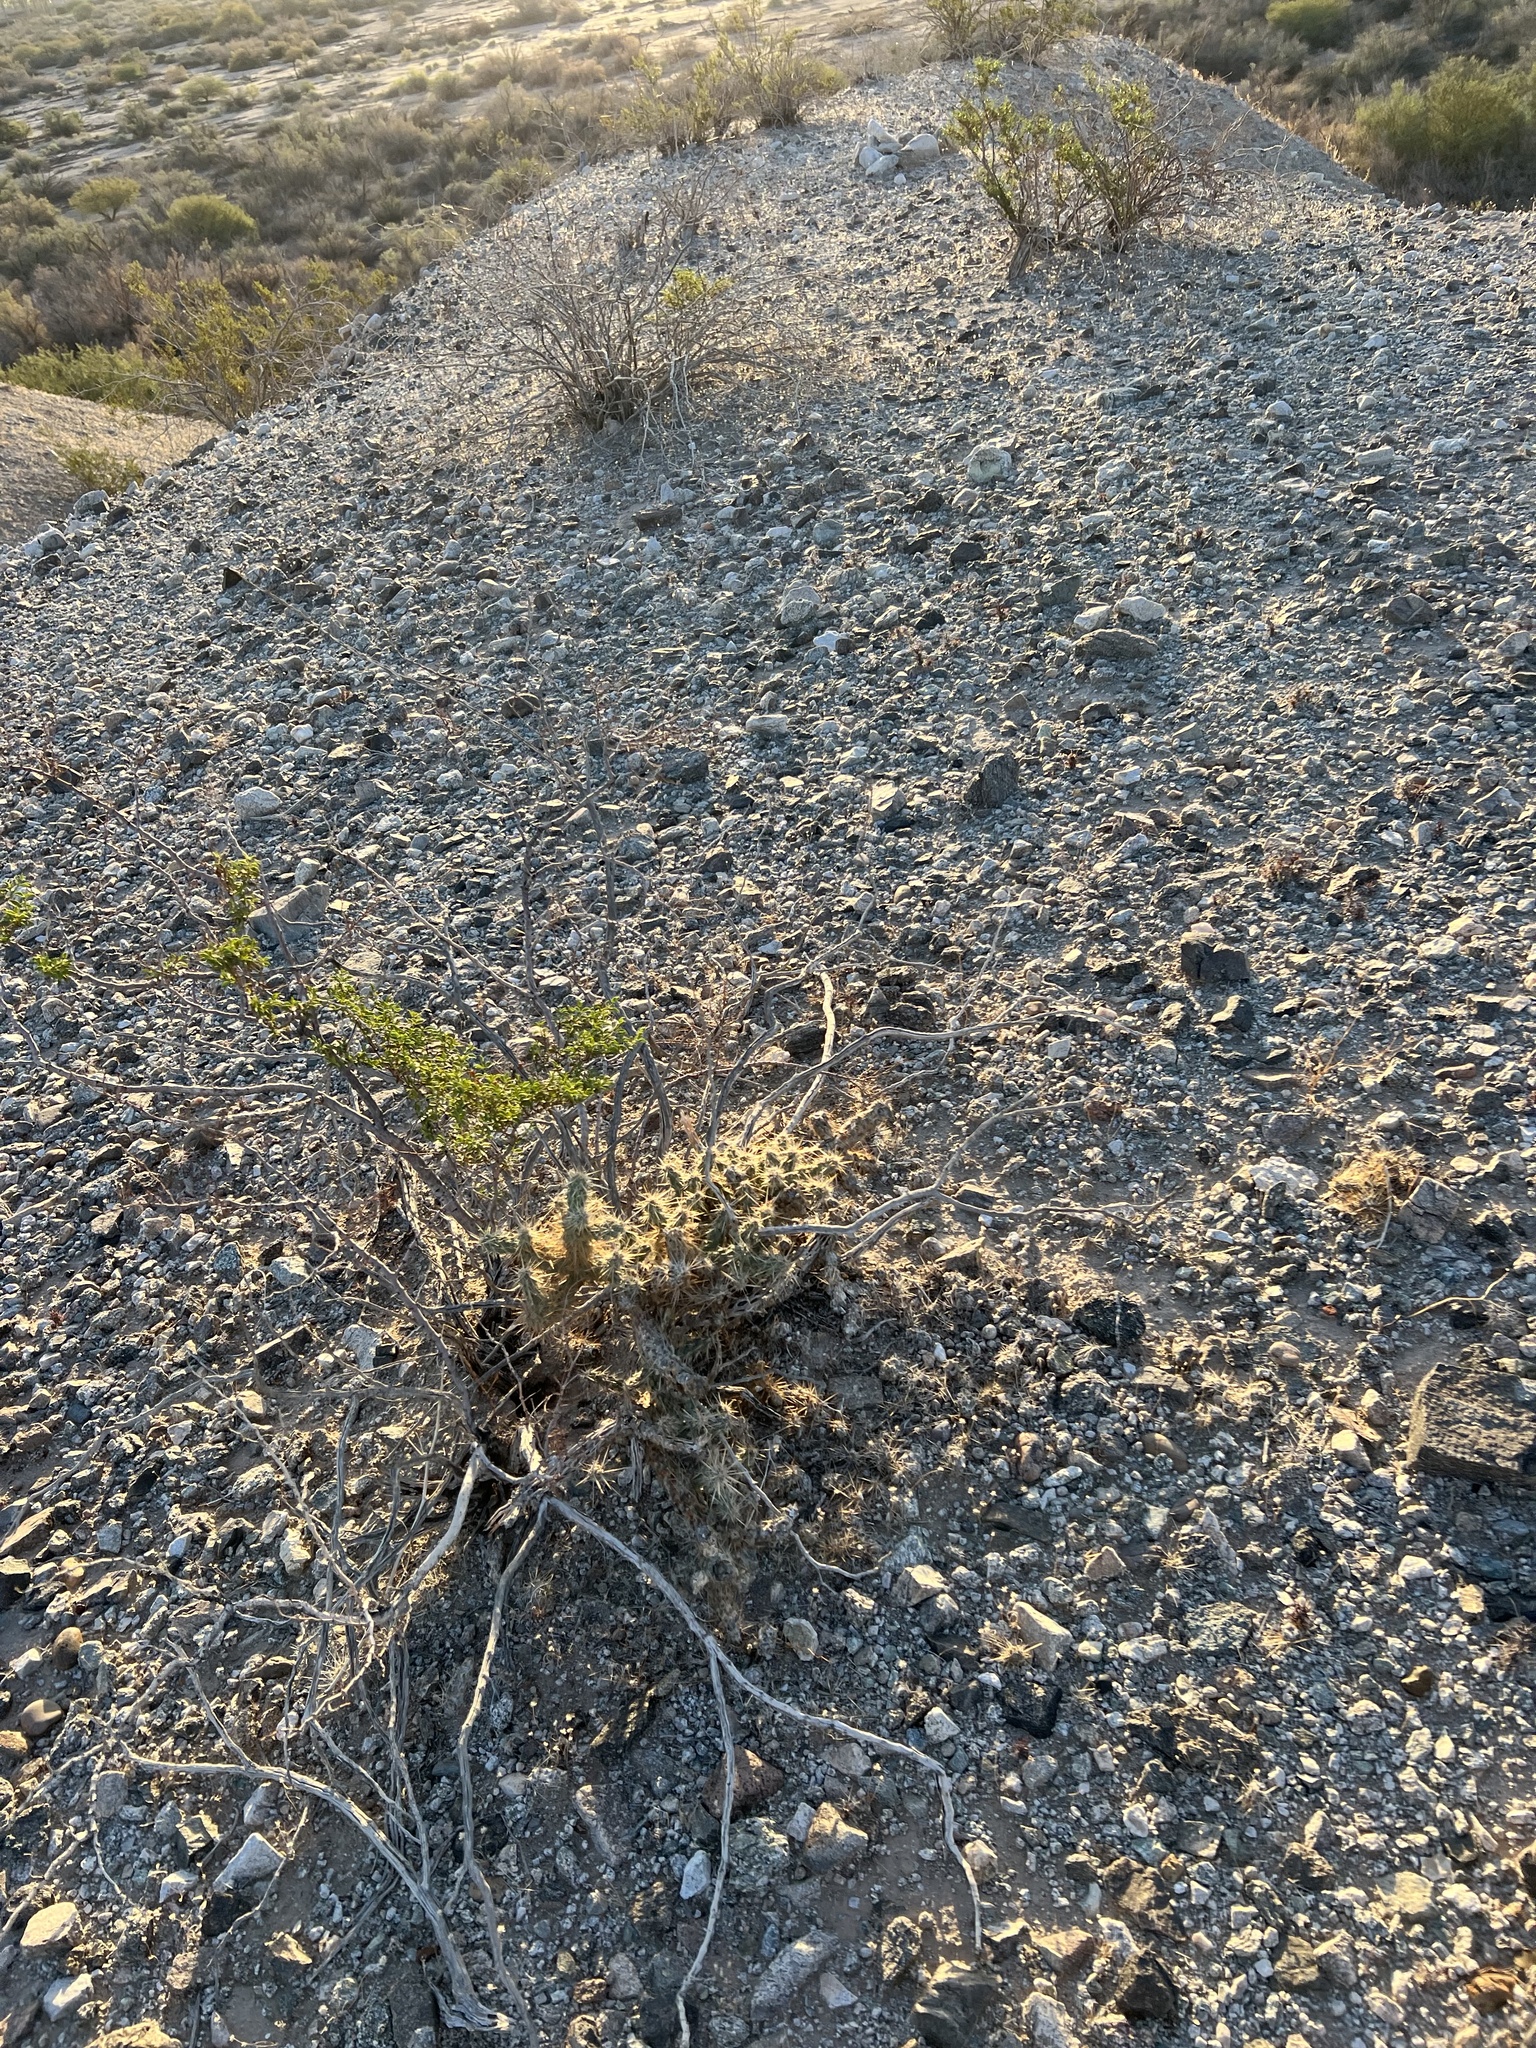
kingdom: Plantae
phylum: Tracheophyta
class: Magnoliopsida
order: Caryophyllales
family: Cactaceae
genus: Cylindropuntia
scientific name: Cylindropuntia echinocarpa
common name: Ground cholla
